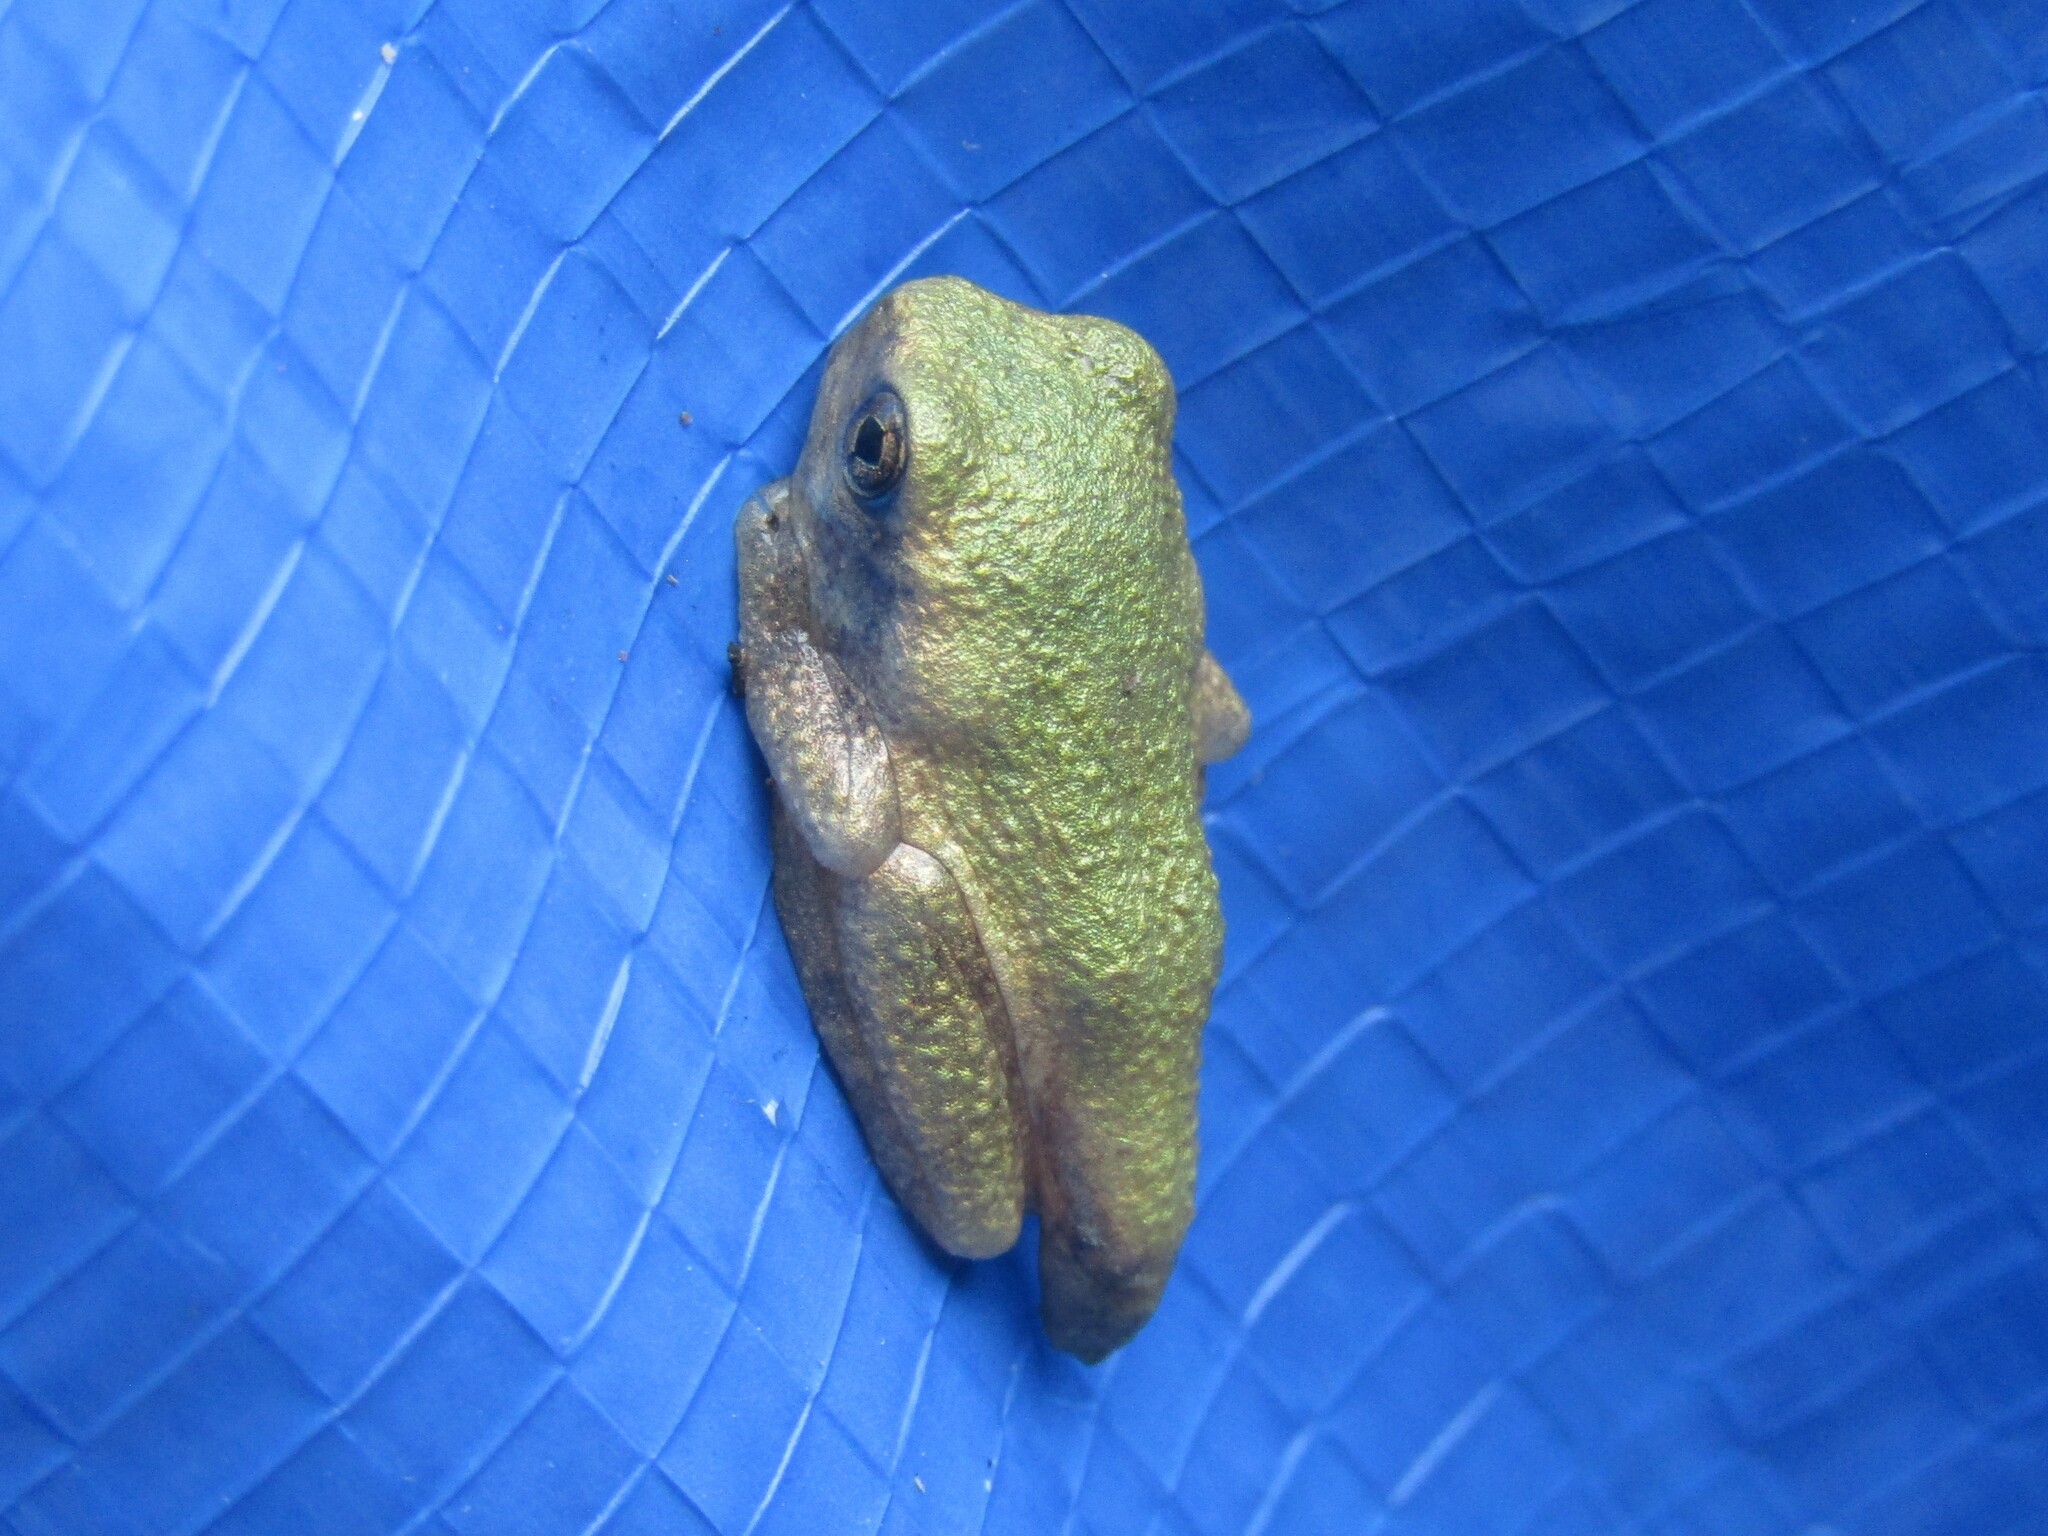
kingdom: Animalia
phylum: Chordata
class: Amphibia
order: Anura
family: Hylidae
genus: Dryophytes
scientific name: Dryophytes chrysoscelis
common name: Cope's gray treefrog
